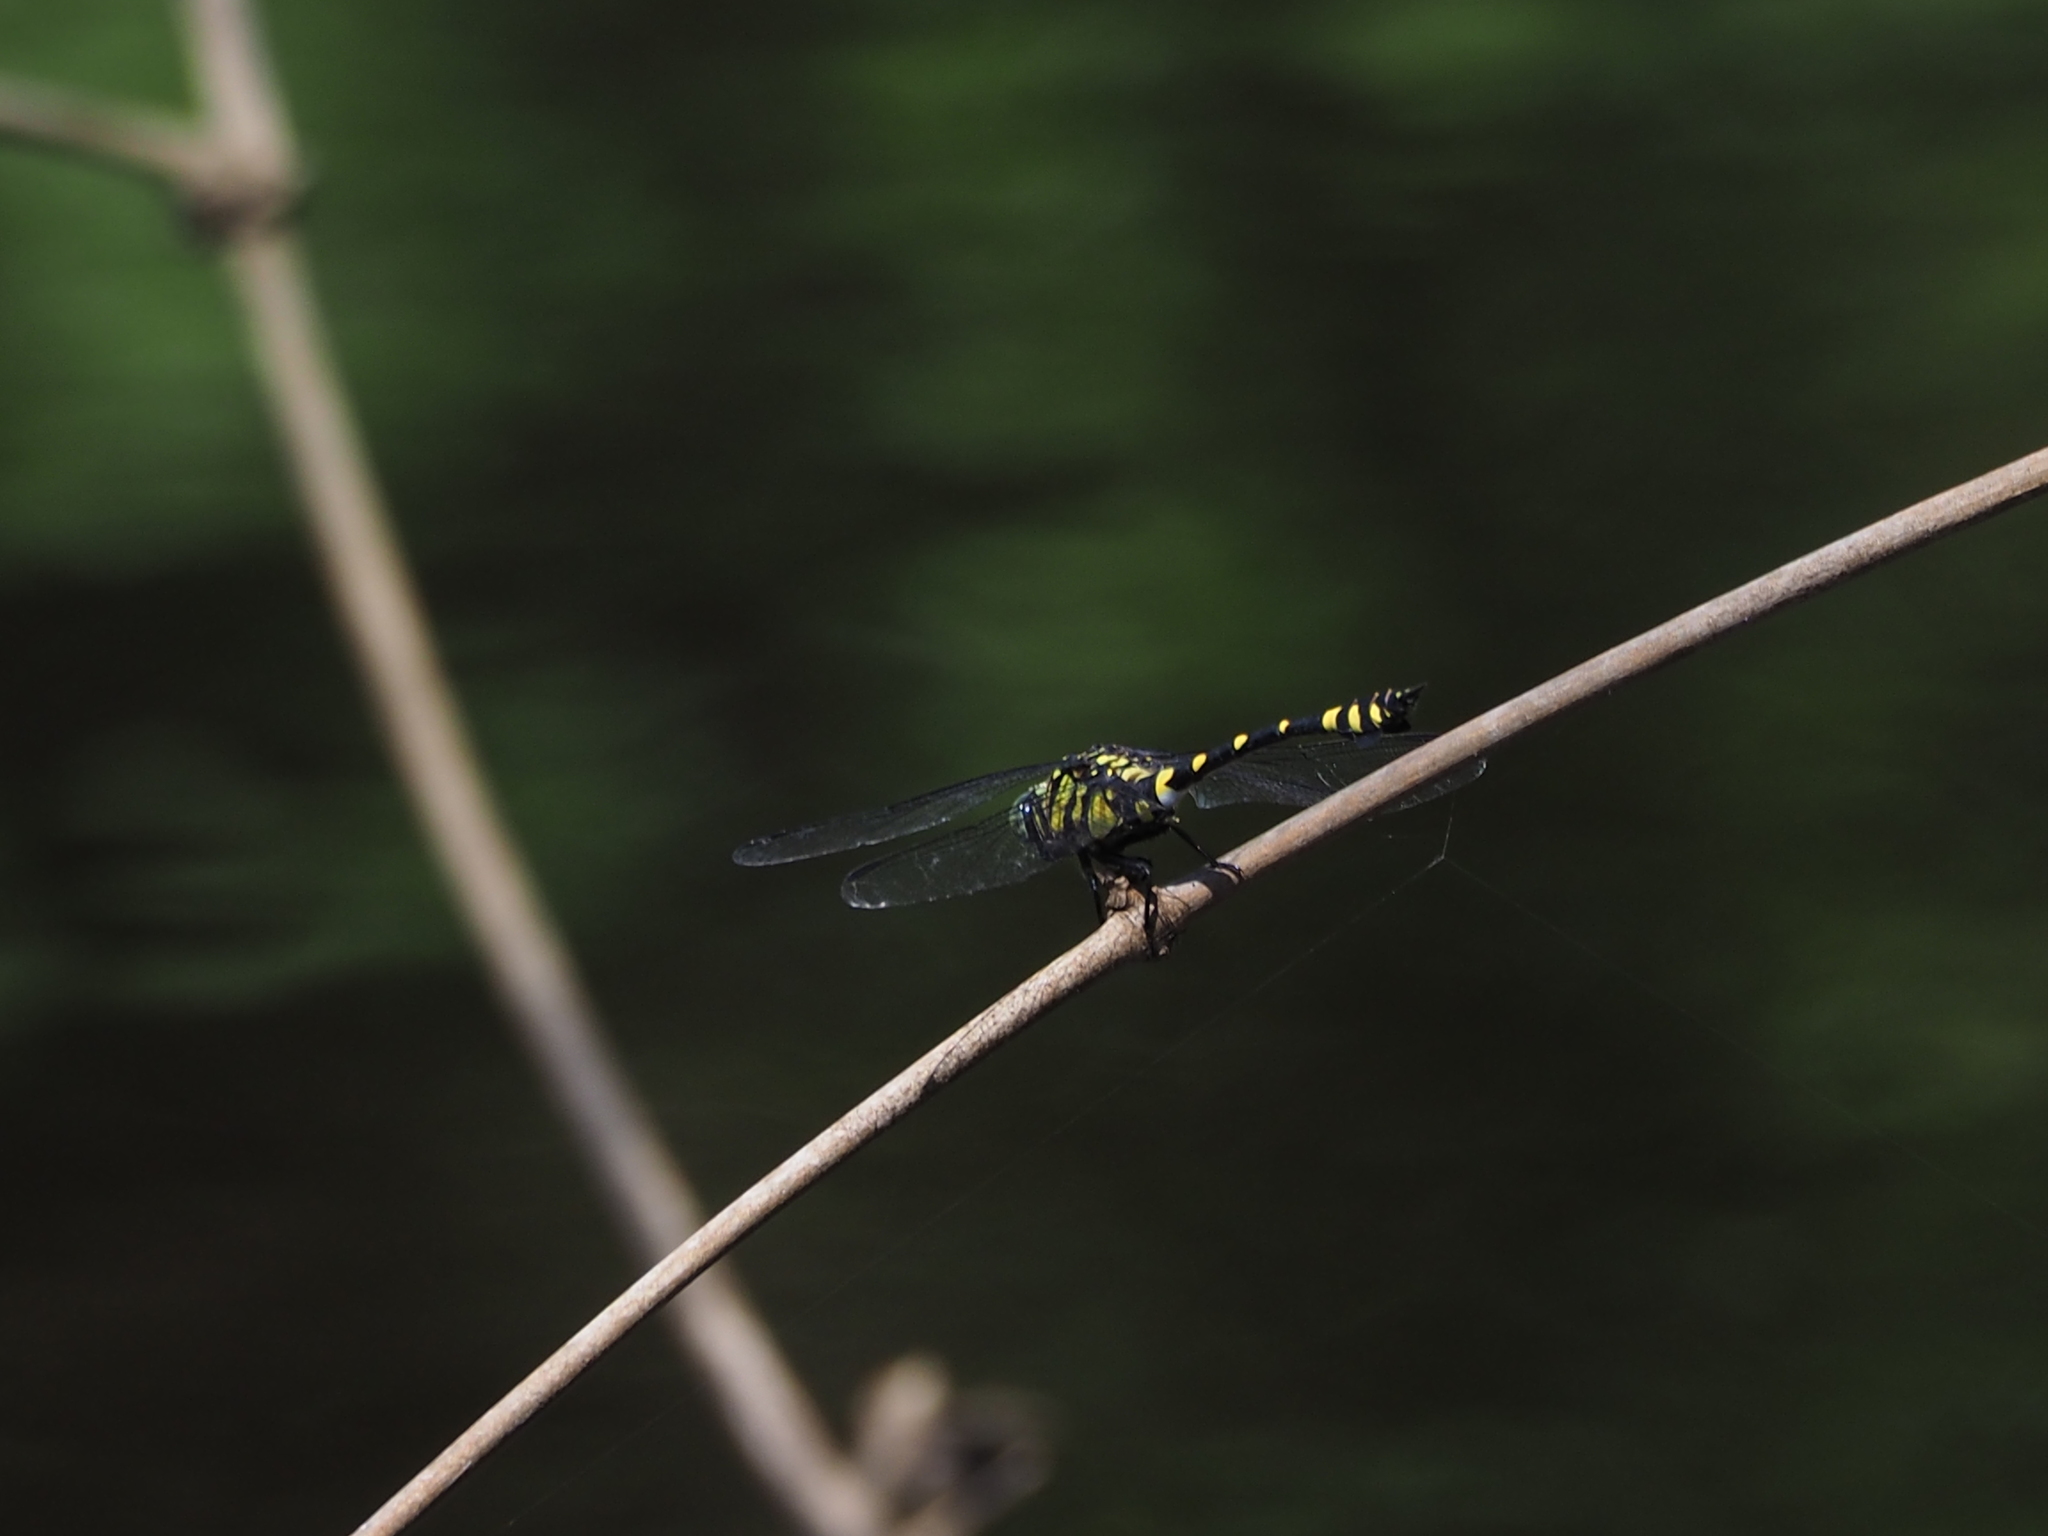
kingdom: Animalia
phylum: Arthropoda
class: Insecta
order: Odonata
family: Gomphidae
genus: Ictinogomphus
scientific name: Ictinogomphus rapax
